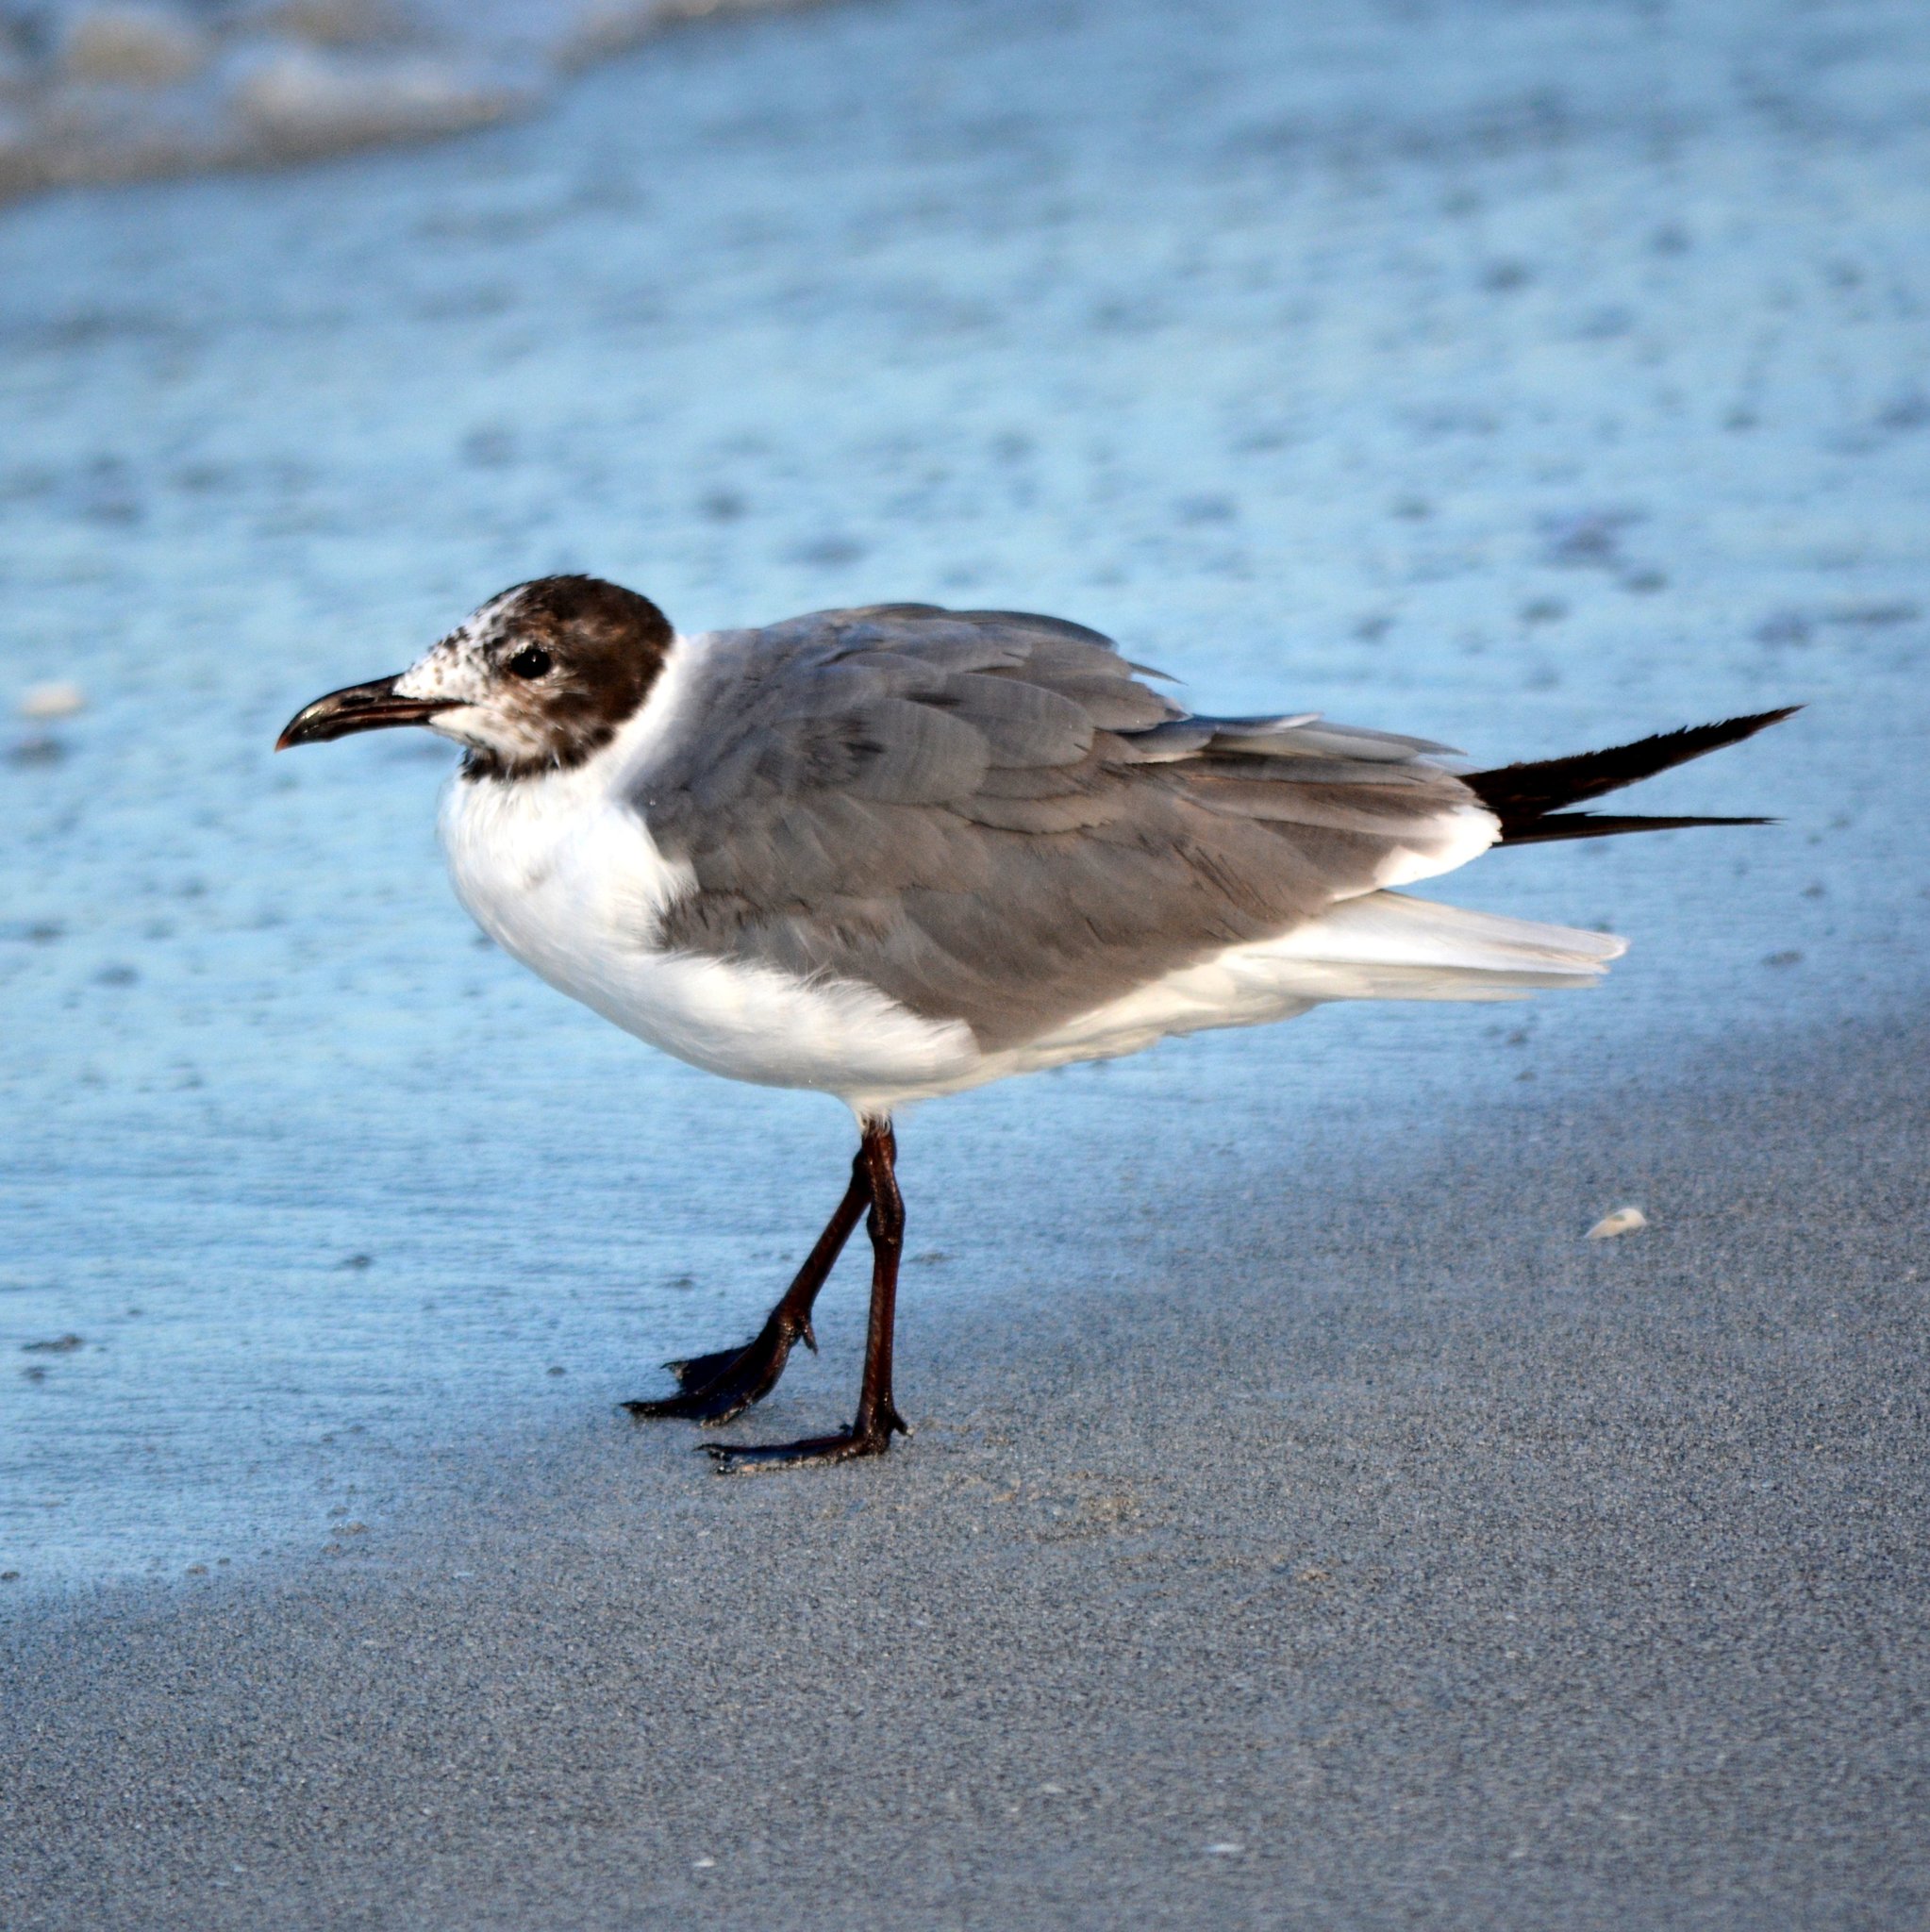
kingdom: Animalia
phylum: Chordata
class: Aves
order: Charadriiformes
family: Laridae
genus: Leucophaeus
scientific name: Leucophaeus atricilla
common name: Laughing gull
